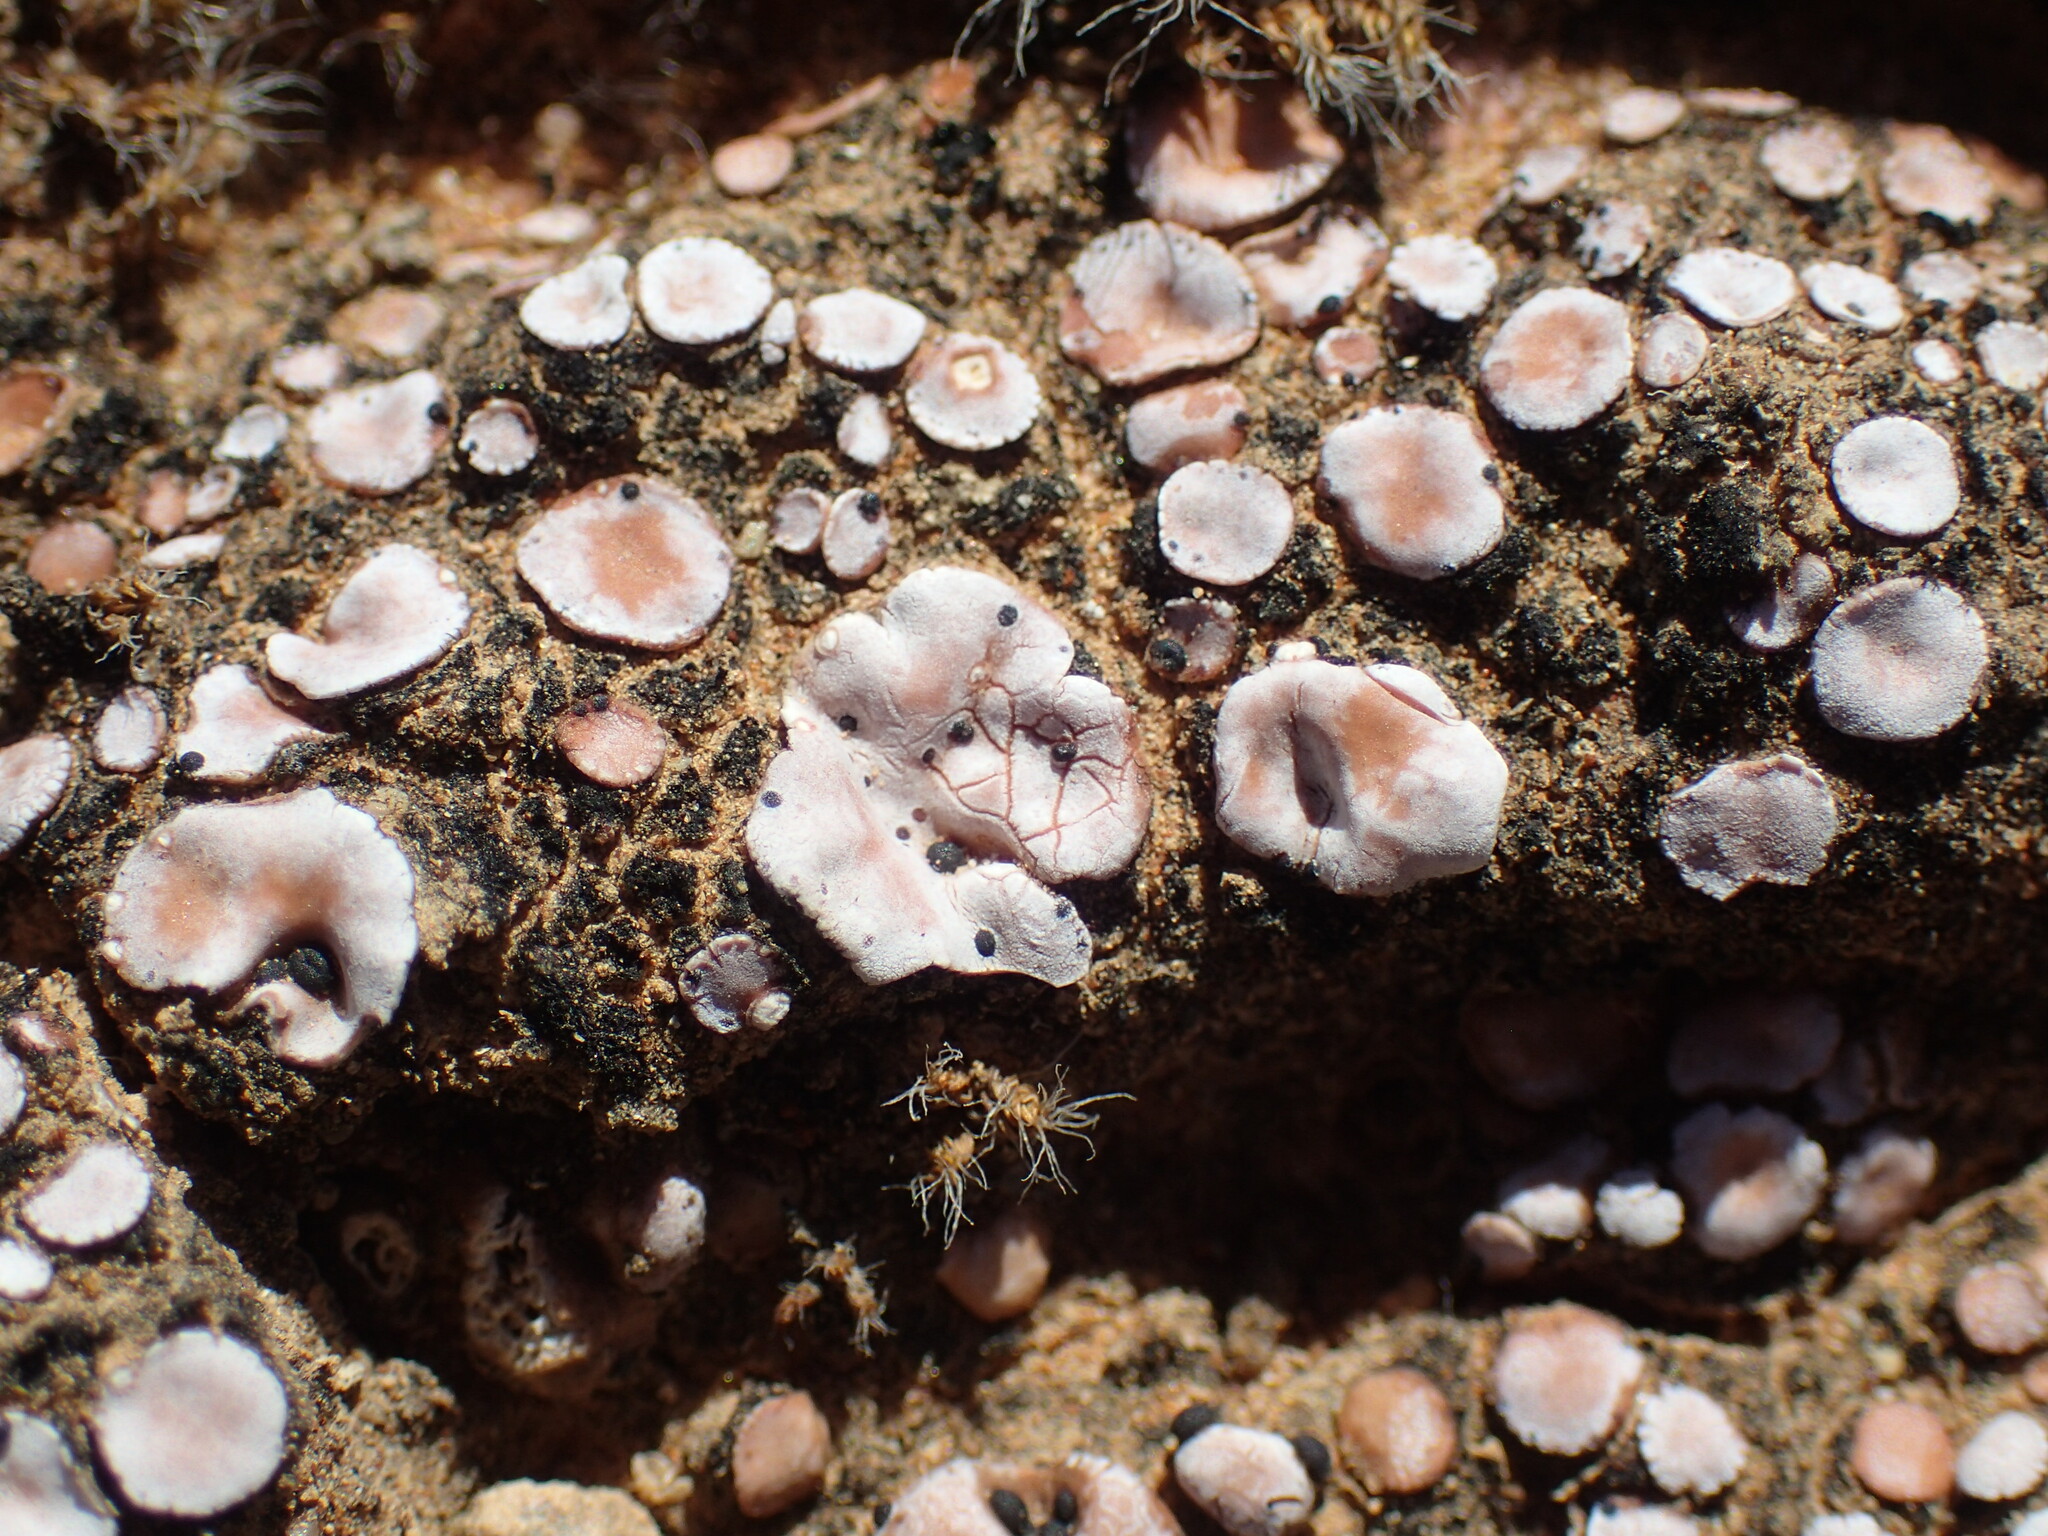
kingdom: Fungi
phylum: Ascomycota
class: Lecanoromycetes
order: Lecanorales
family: Psoraceae
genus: Psora
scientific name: Psora crenata
